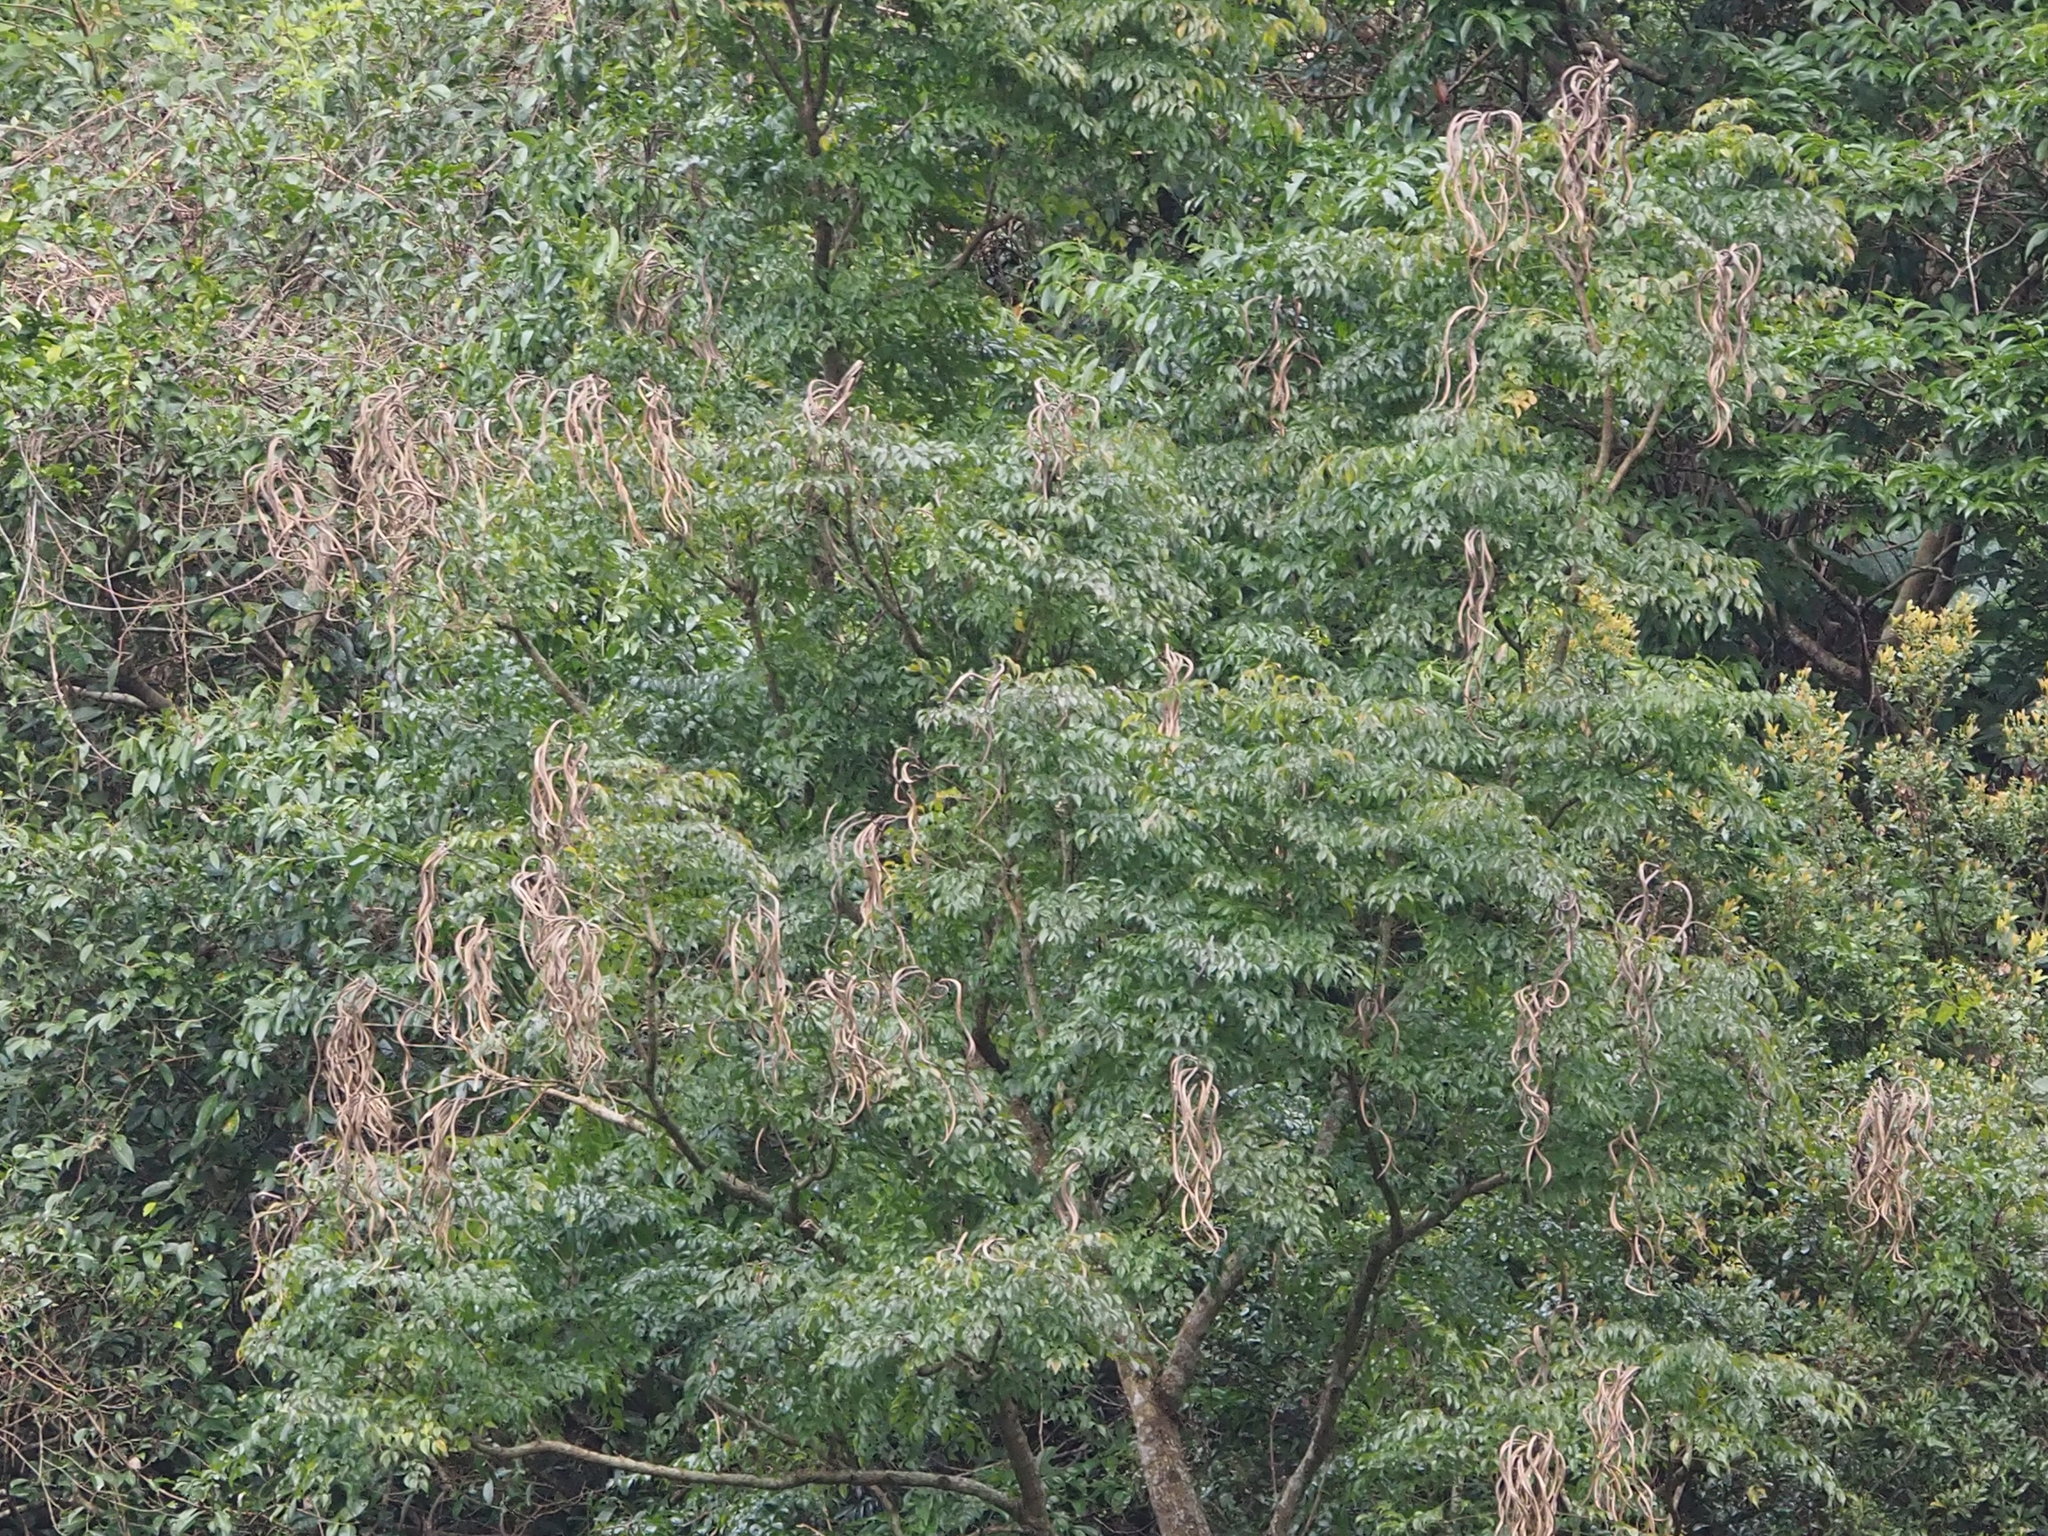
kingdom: Plantae
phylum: Tracheophyta
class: Magnoliopsida
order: Lamiales
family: Bignoniaceae
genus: Radermachera
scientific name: Radermachera sinica
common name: China doll plant
